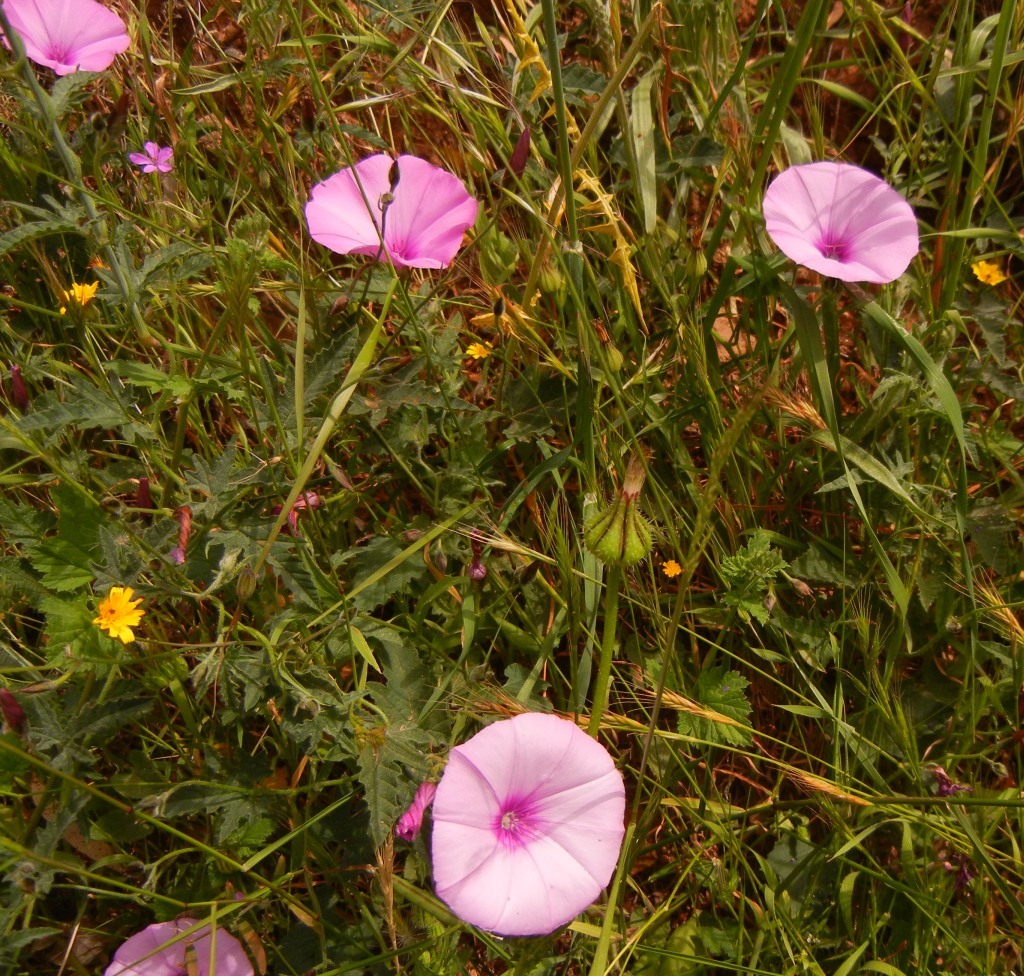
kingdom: Plantae
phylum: Tracheophyta
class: Magnoliopsida
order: Solanales
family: Convolvulaceae
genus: Convolvulus
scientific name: Convolvulus althaeoides
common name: Mallow bindweed
